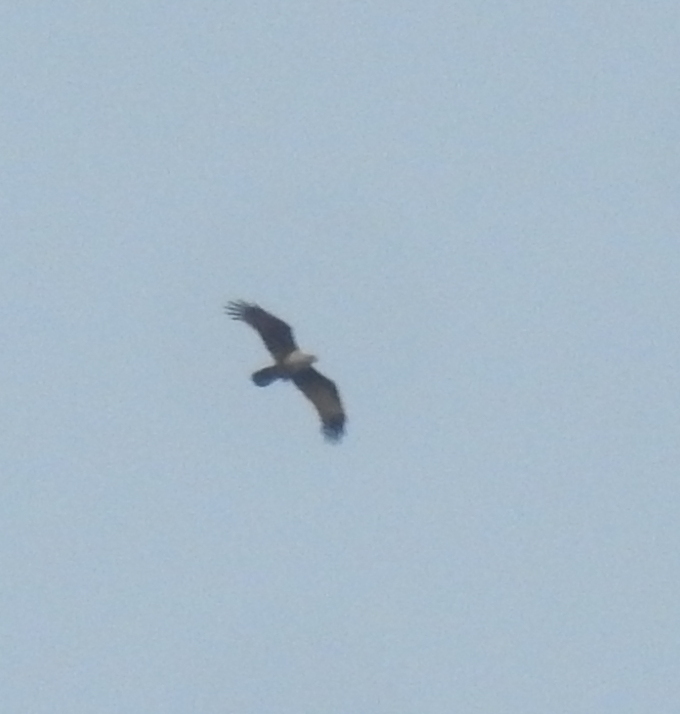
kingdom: Animalia
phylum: Chordata
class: Aves
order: Accipitriformes
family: Accipitridae
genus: Haliastur
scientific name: Haliastur indus
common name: Brahminy kite
